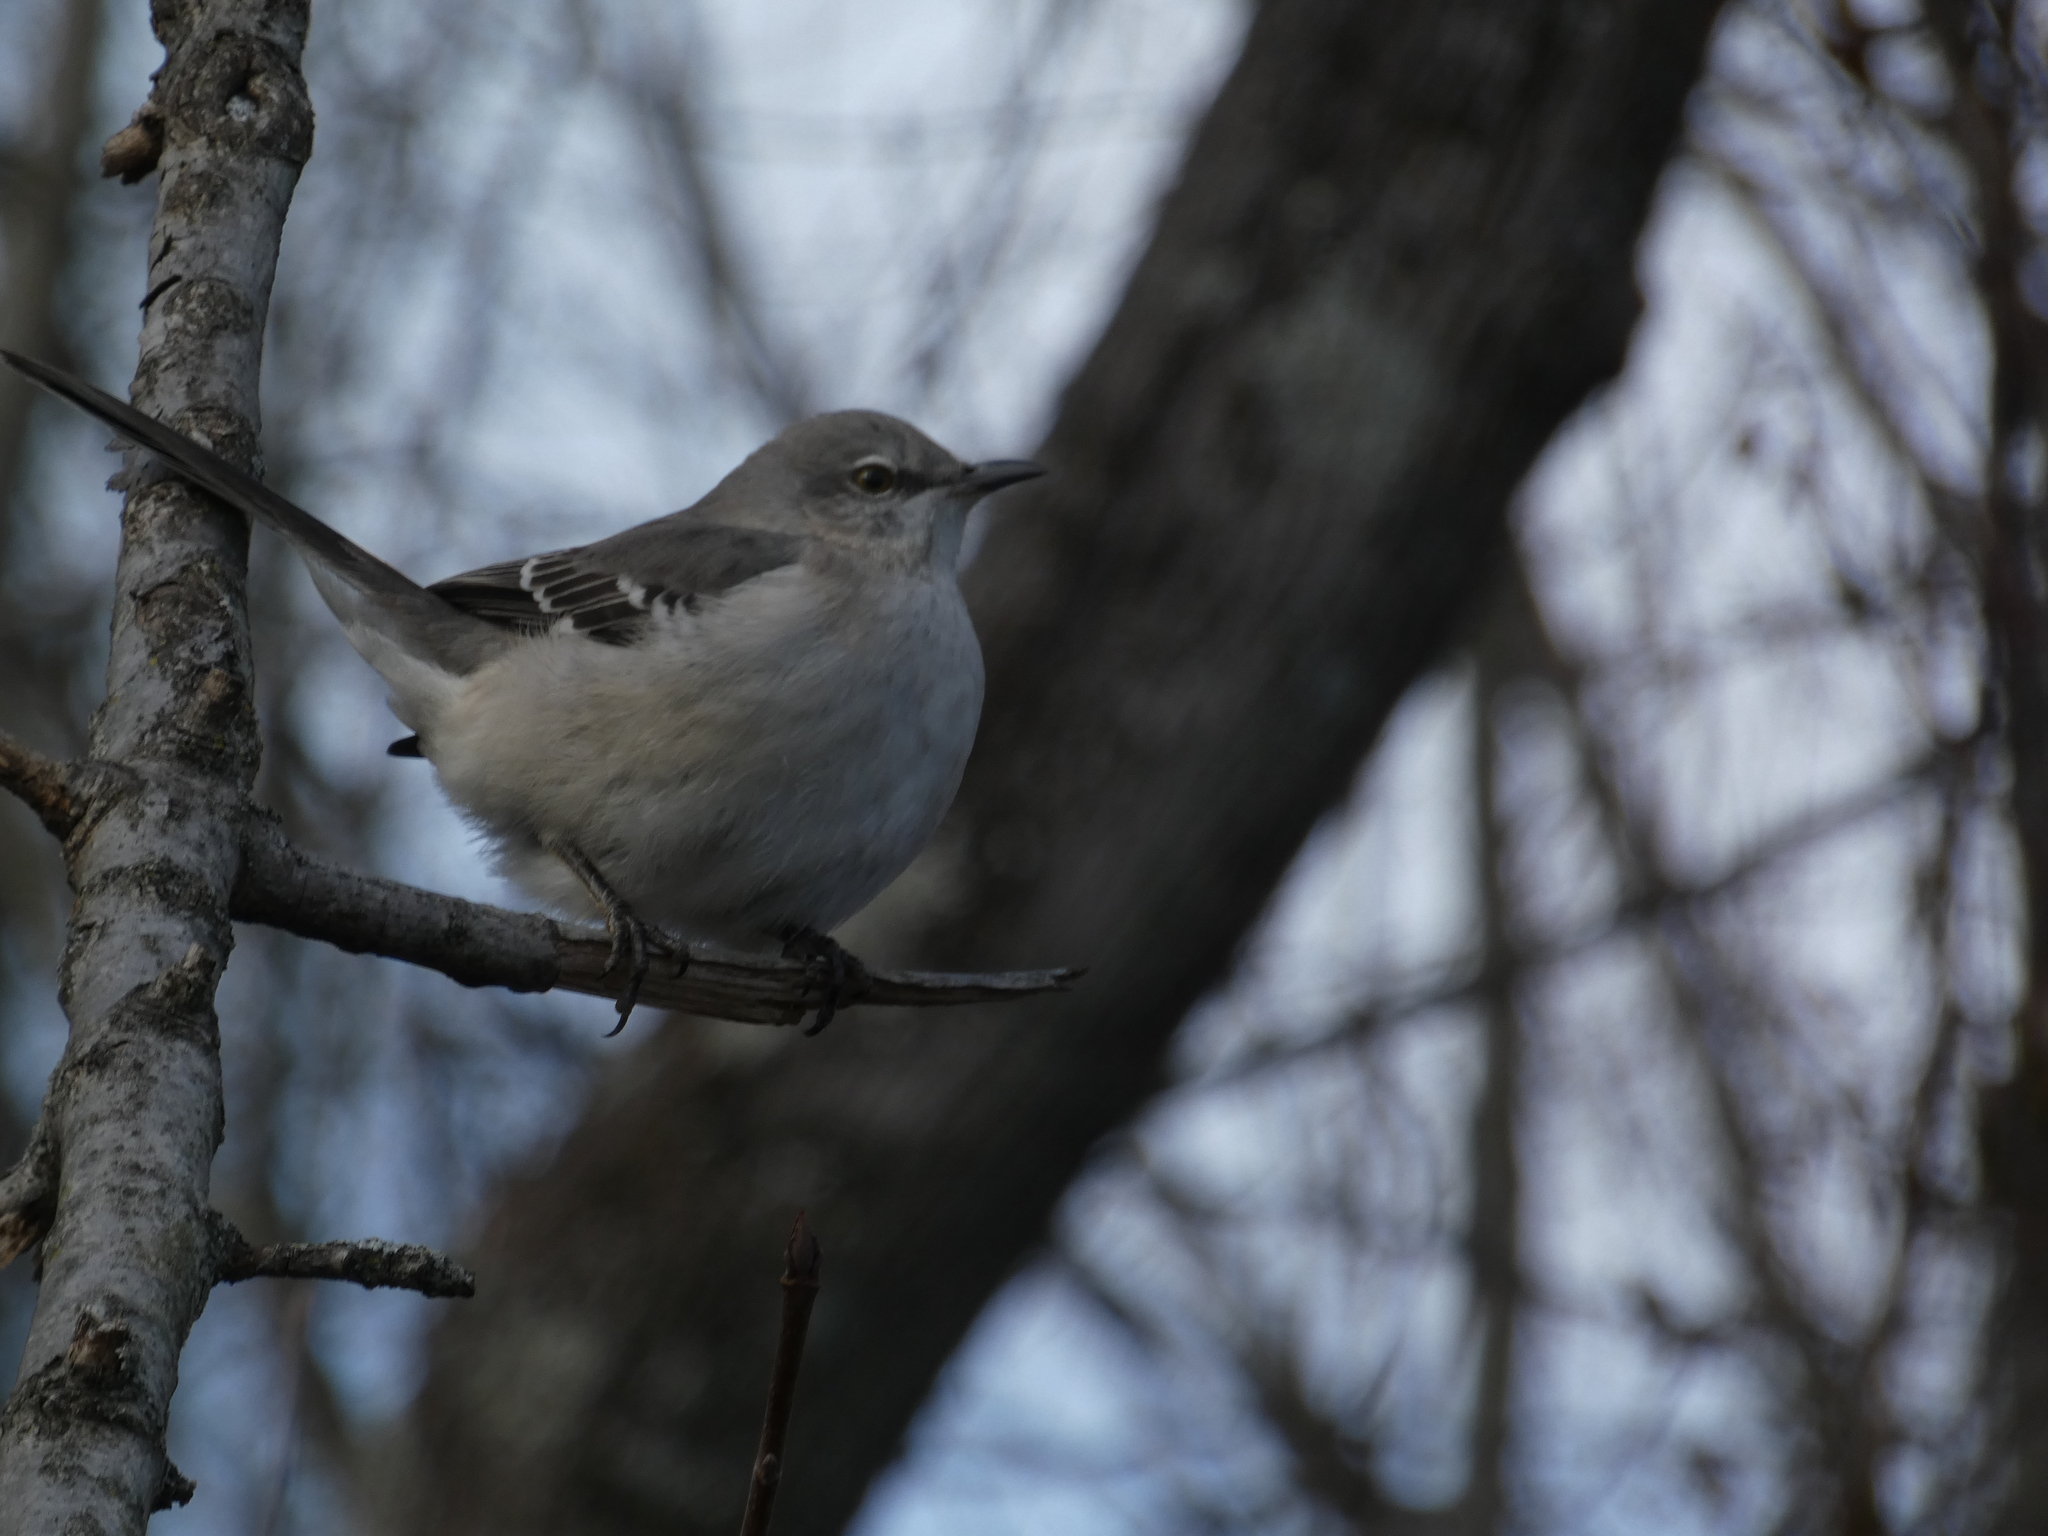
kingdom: Animalia
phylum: Chordata
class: Aves
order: Passeriformes
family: Mimidae
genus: Mimus
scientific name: Mimus polyglottos
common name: Northern mockingbird
